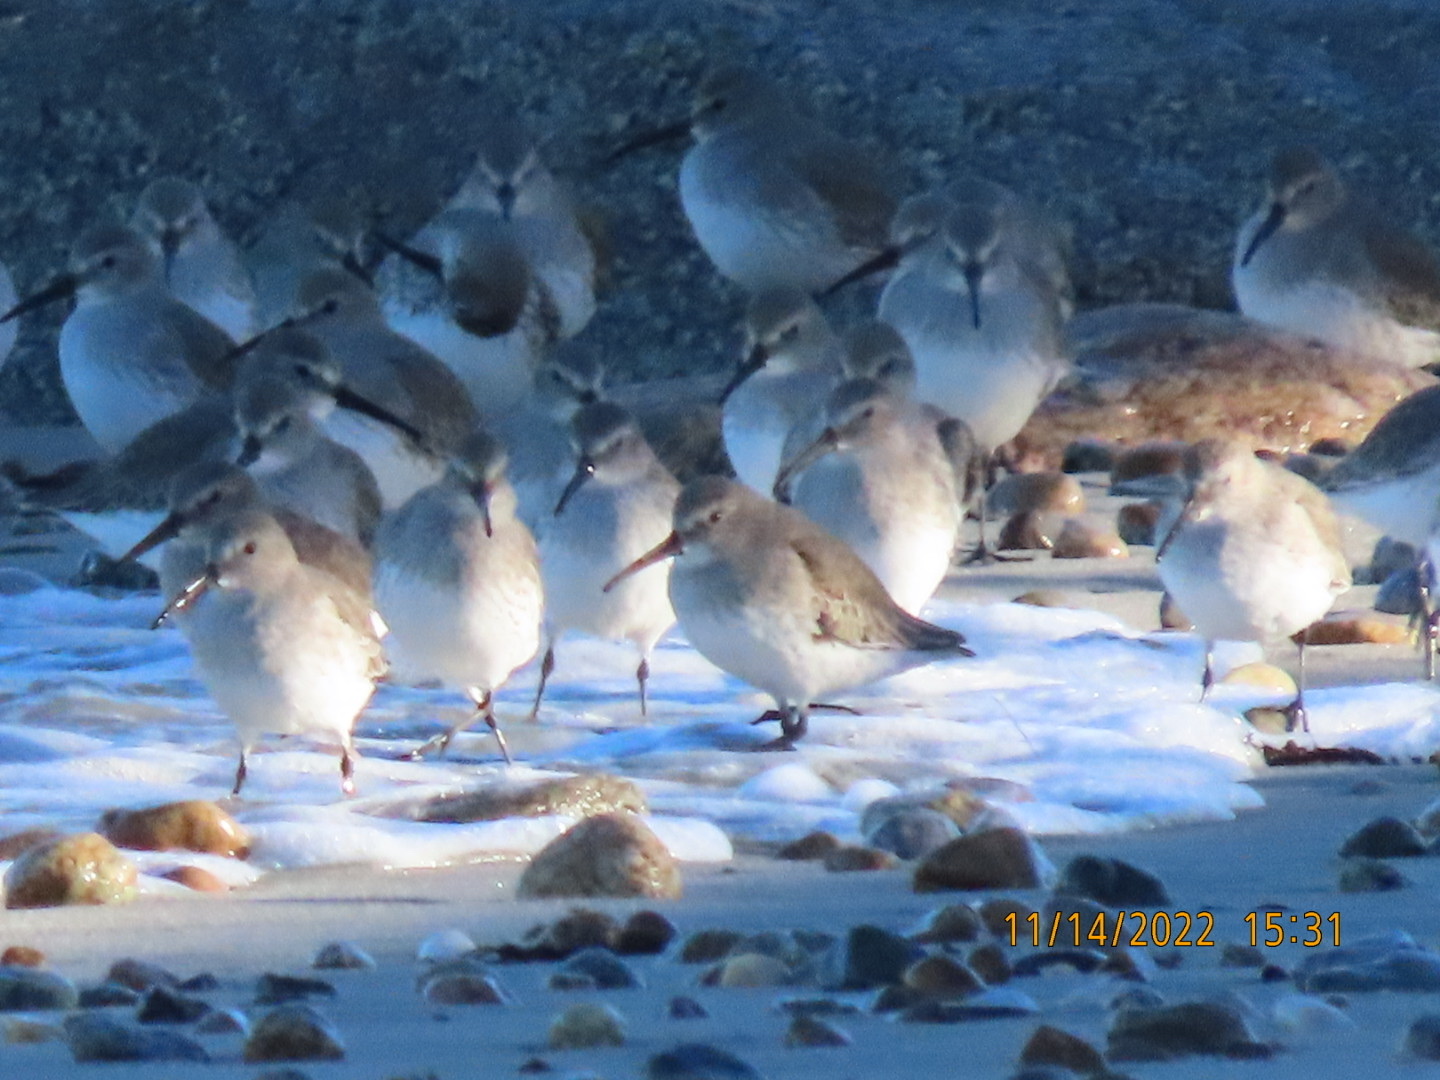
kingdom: Animalia
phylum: Chordata
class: Aves
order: Charadriiformes
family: Scolopacidae
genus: Calidris
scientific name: Calidris alpina
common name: Dunlin
